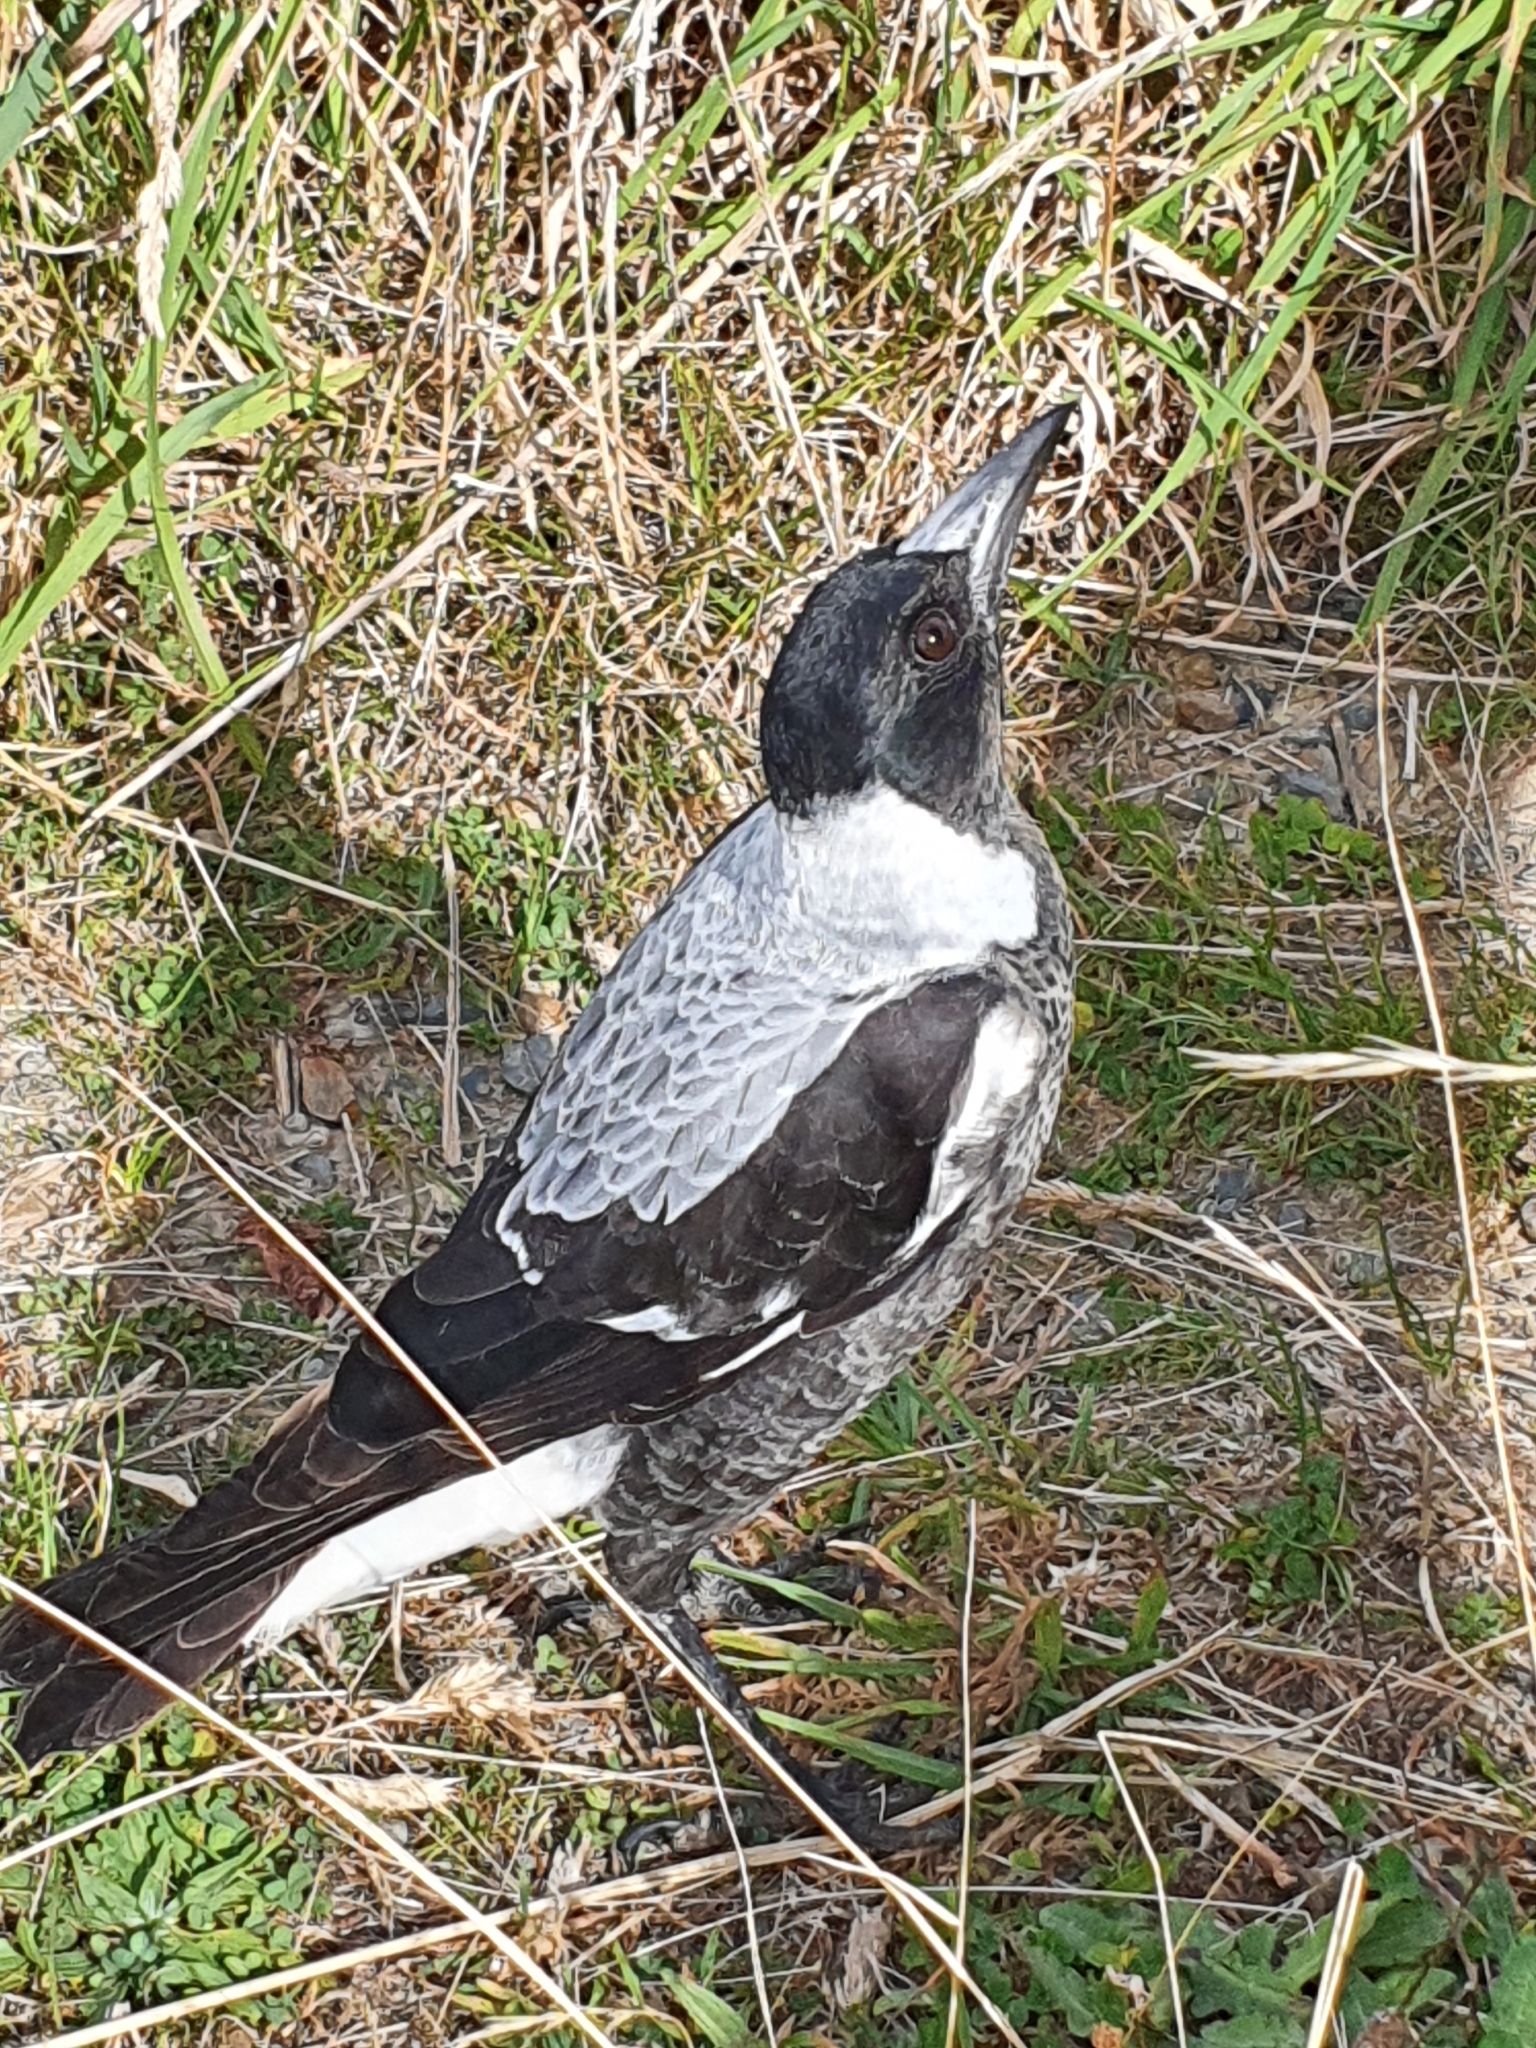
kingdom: Animalia
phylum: Chordata
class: Aves
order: Passeriformes
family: Cracticidae
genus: Gymnorhina
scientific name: Gymnorhina tibicen
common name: Australian magpie
